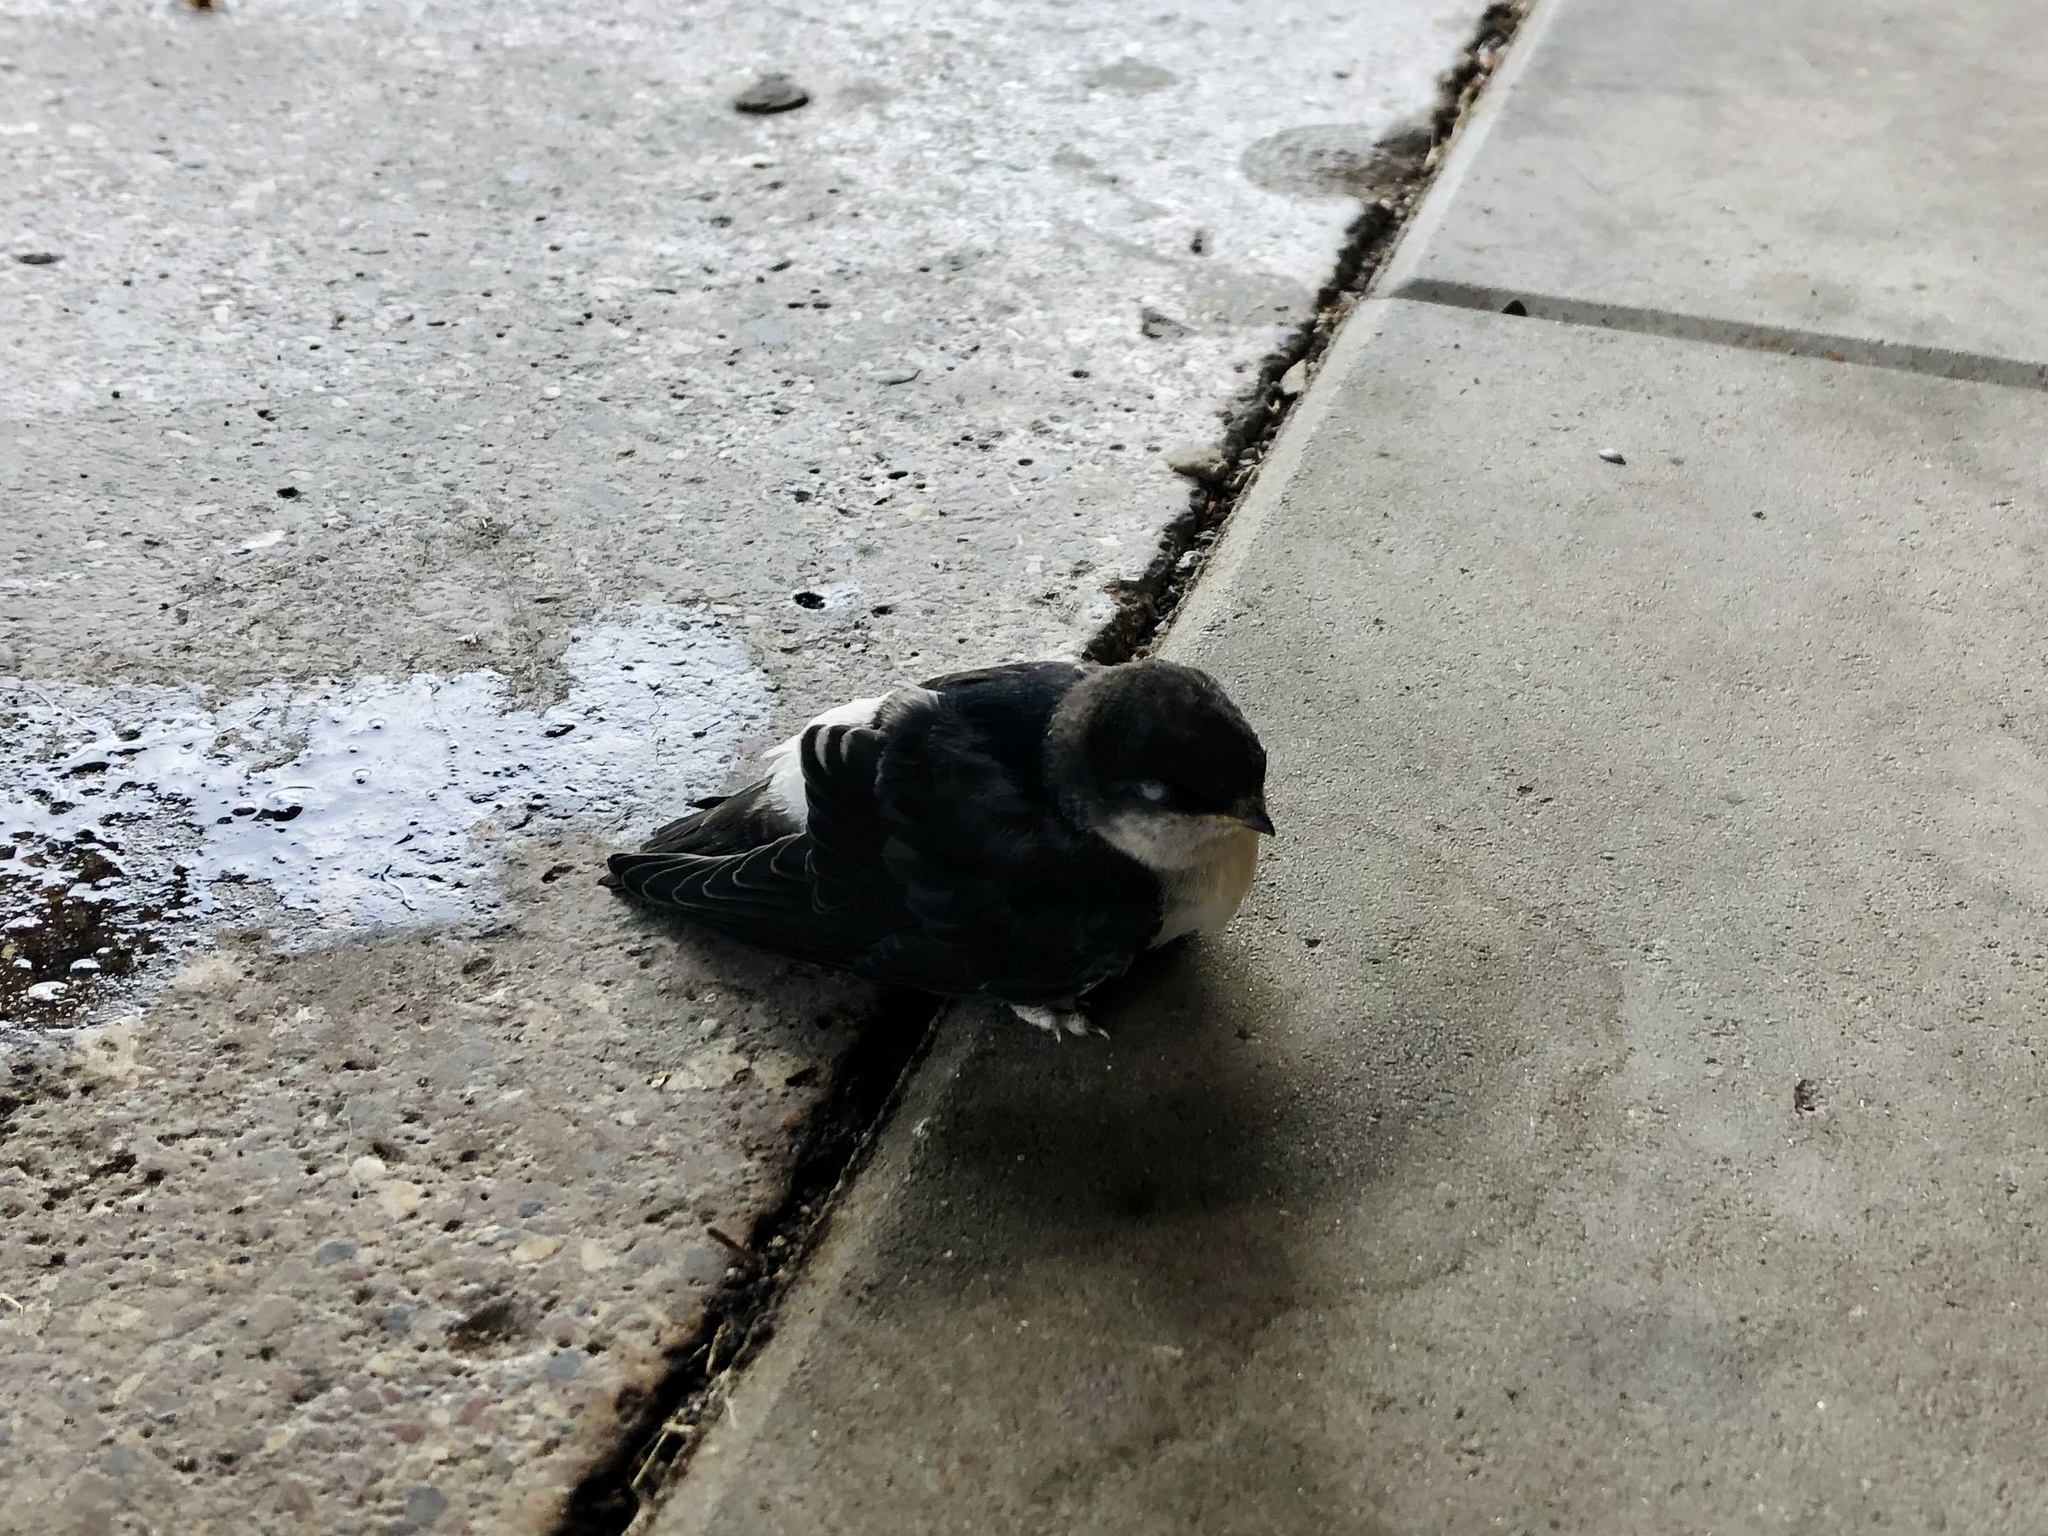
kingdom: Animalia
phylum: Chordata
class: Aves
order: Passeriformes
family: Hirundinidae
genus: Delichon
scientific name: Delichon urbicum
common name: Common house martin
